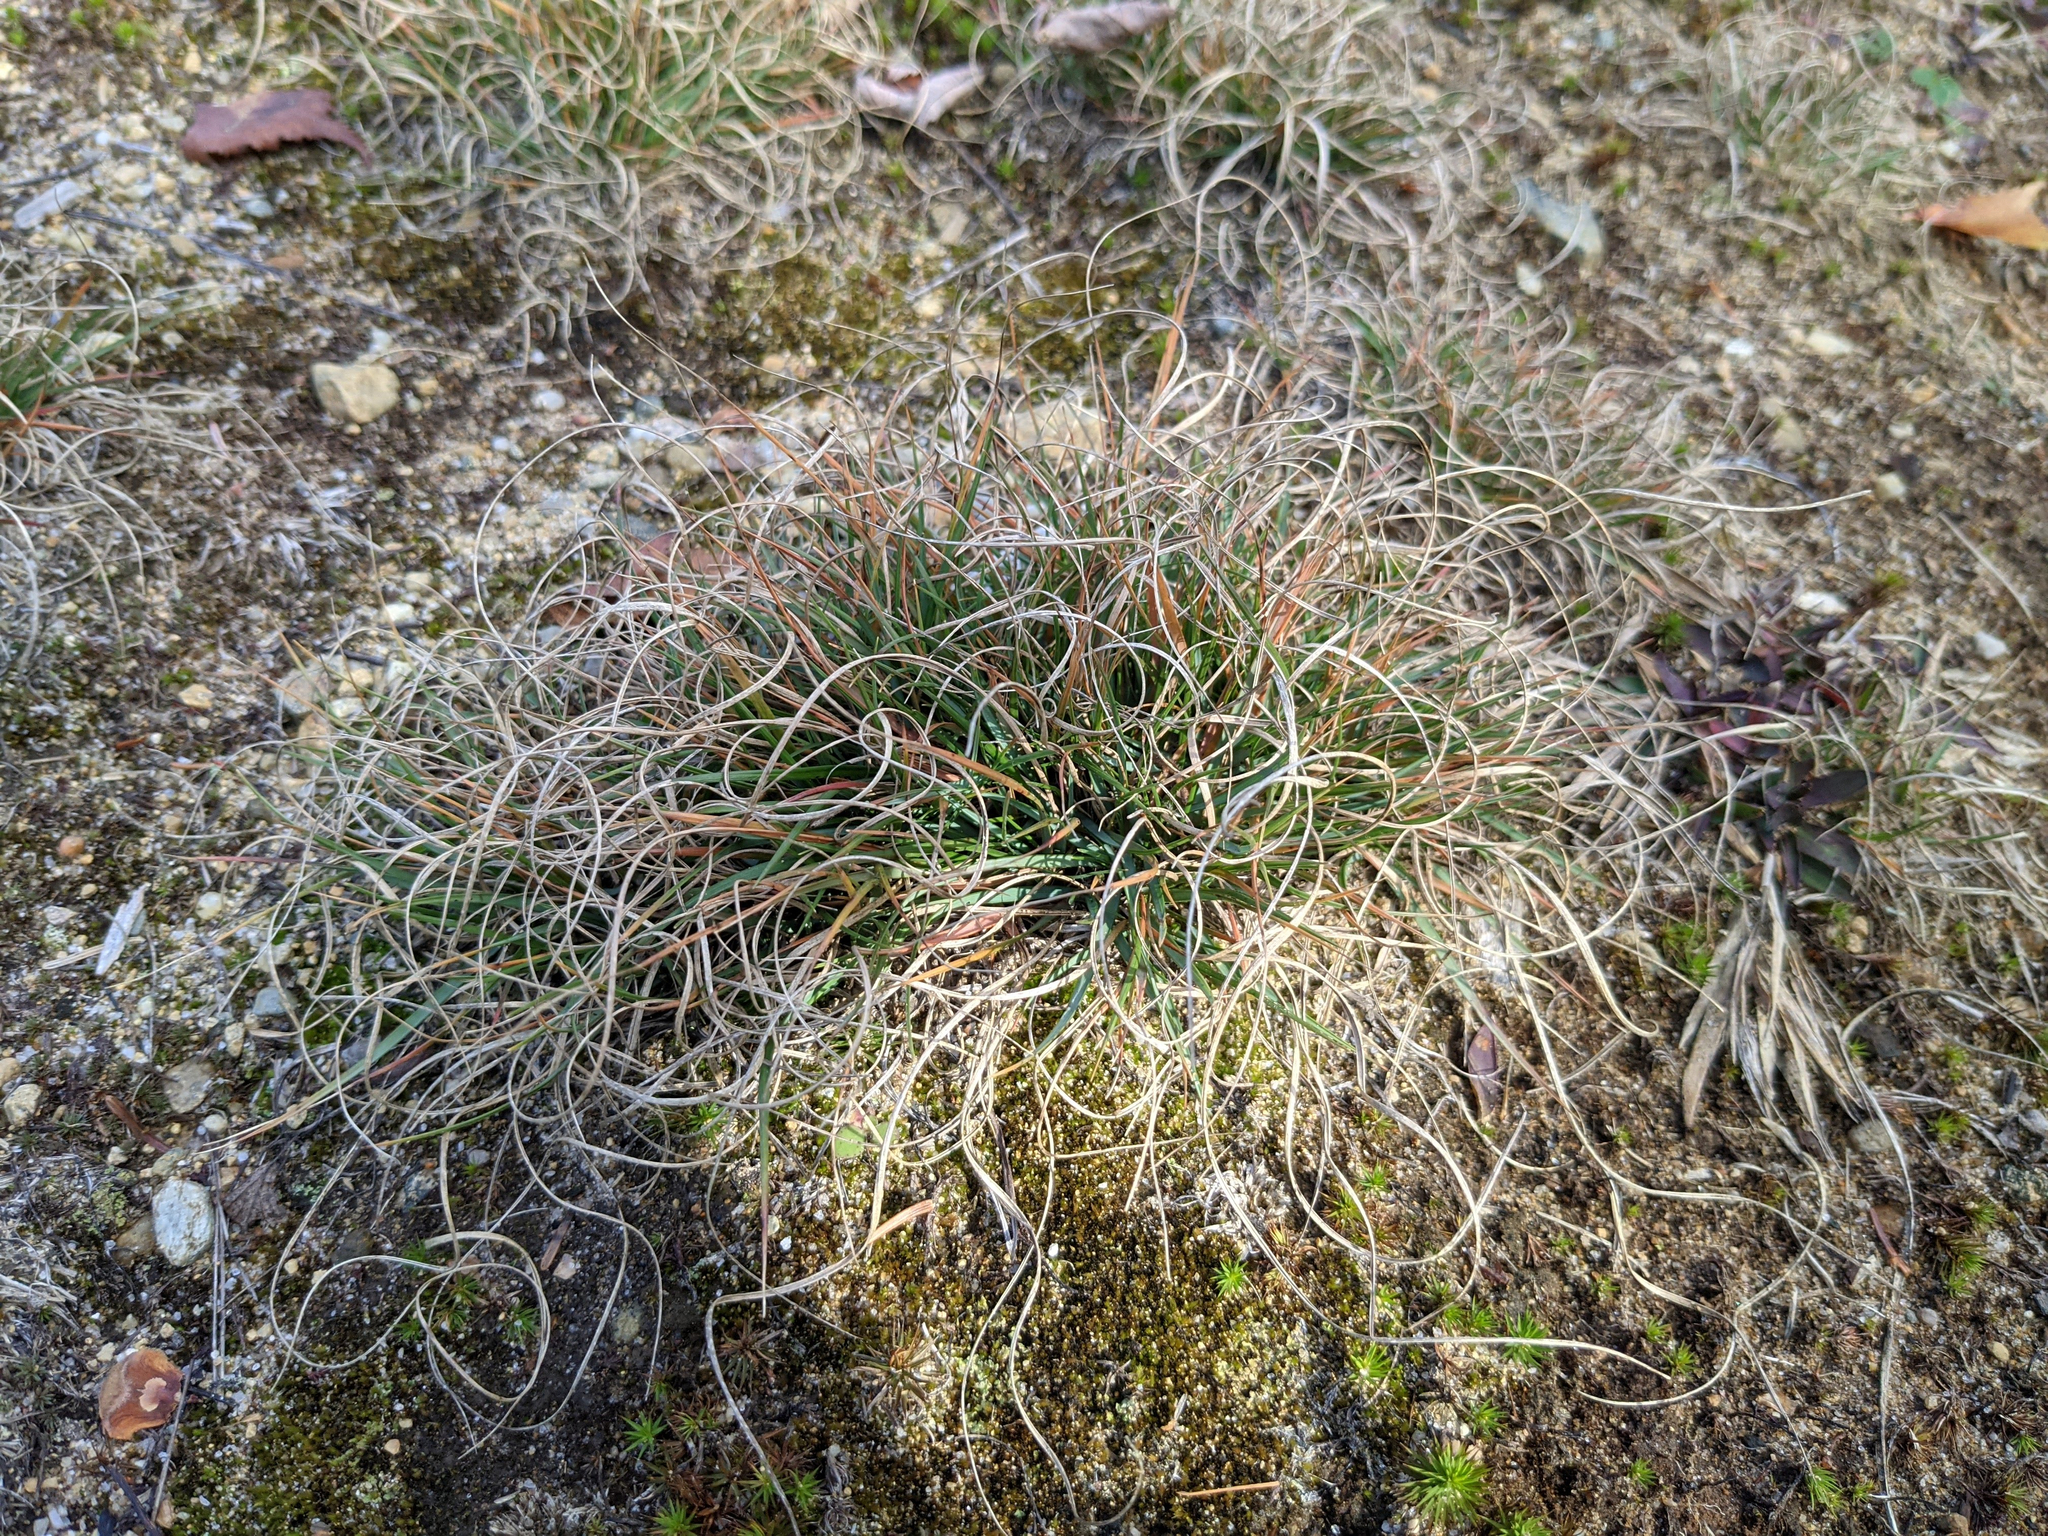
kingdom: Plantae
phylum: Tracheophyta
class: Liliopsida
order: Poales
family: Poaceae
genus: Danthonia
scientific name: Danthonia spicata
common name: Common wild oatgrass
